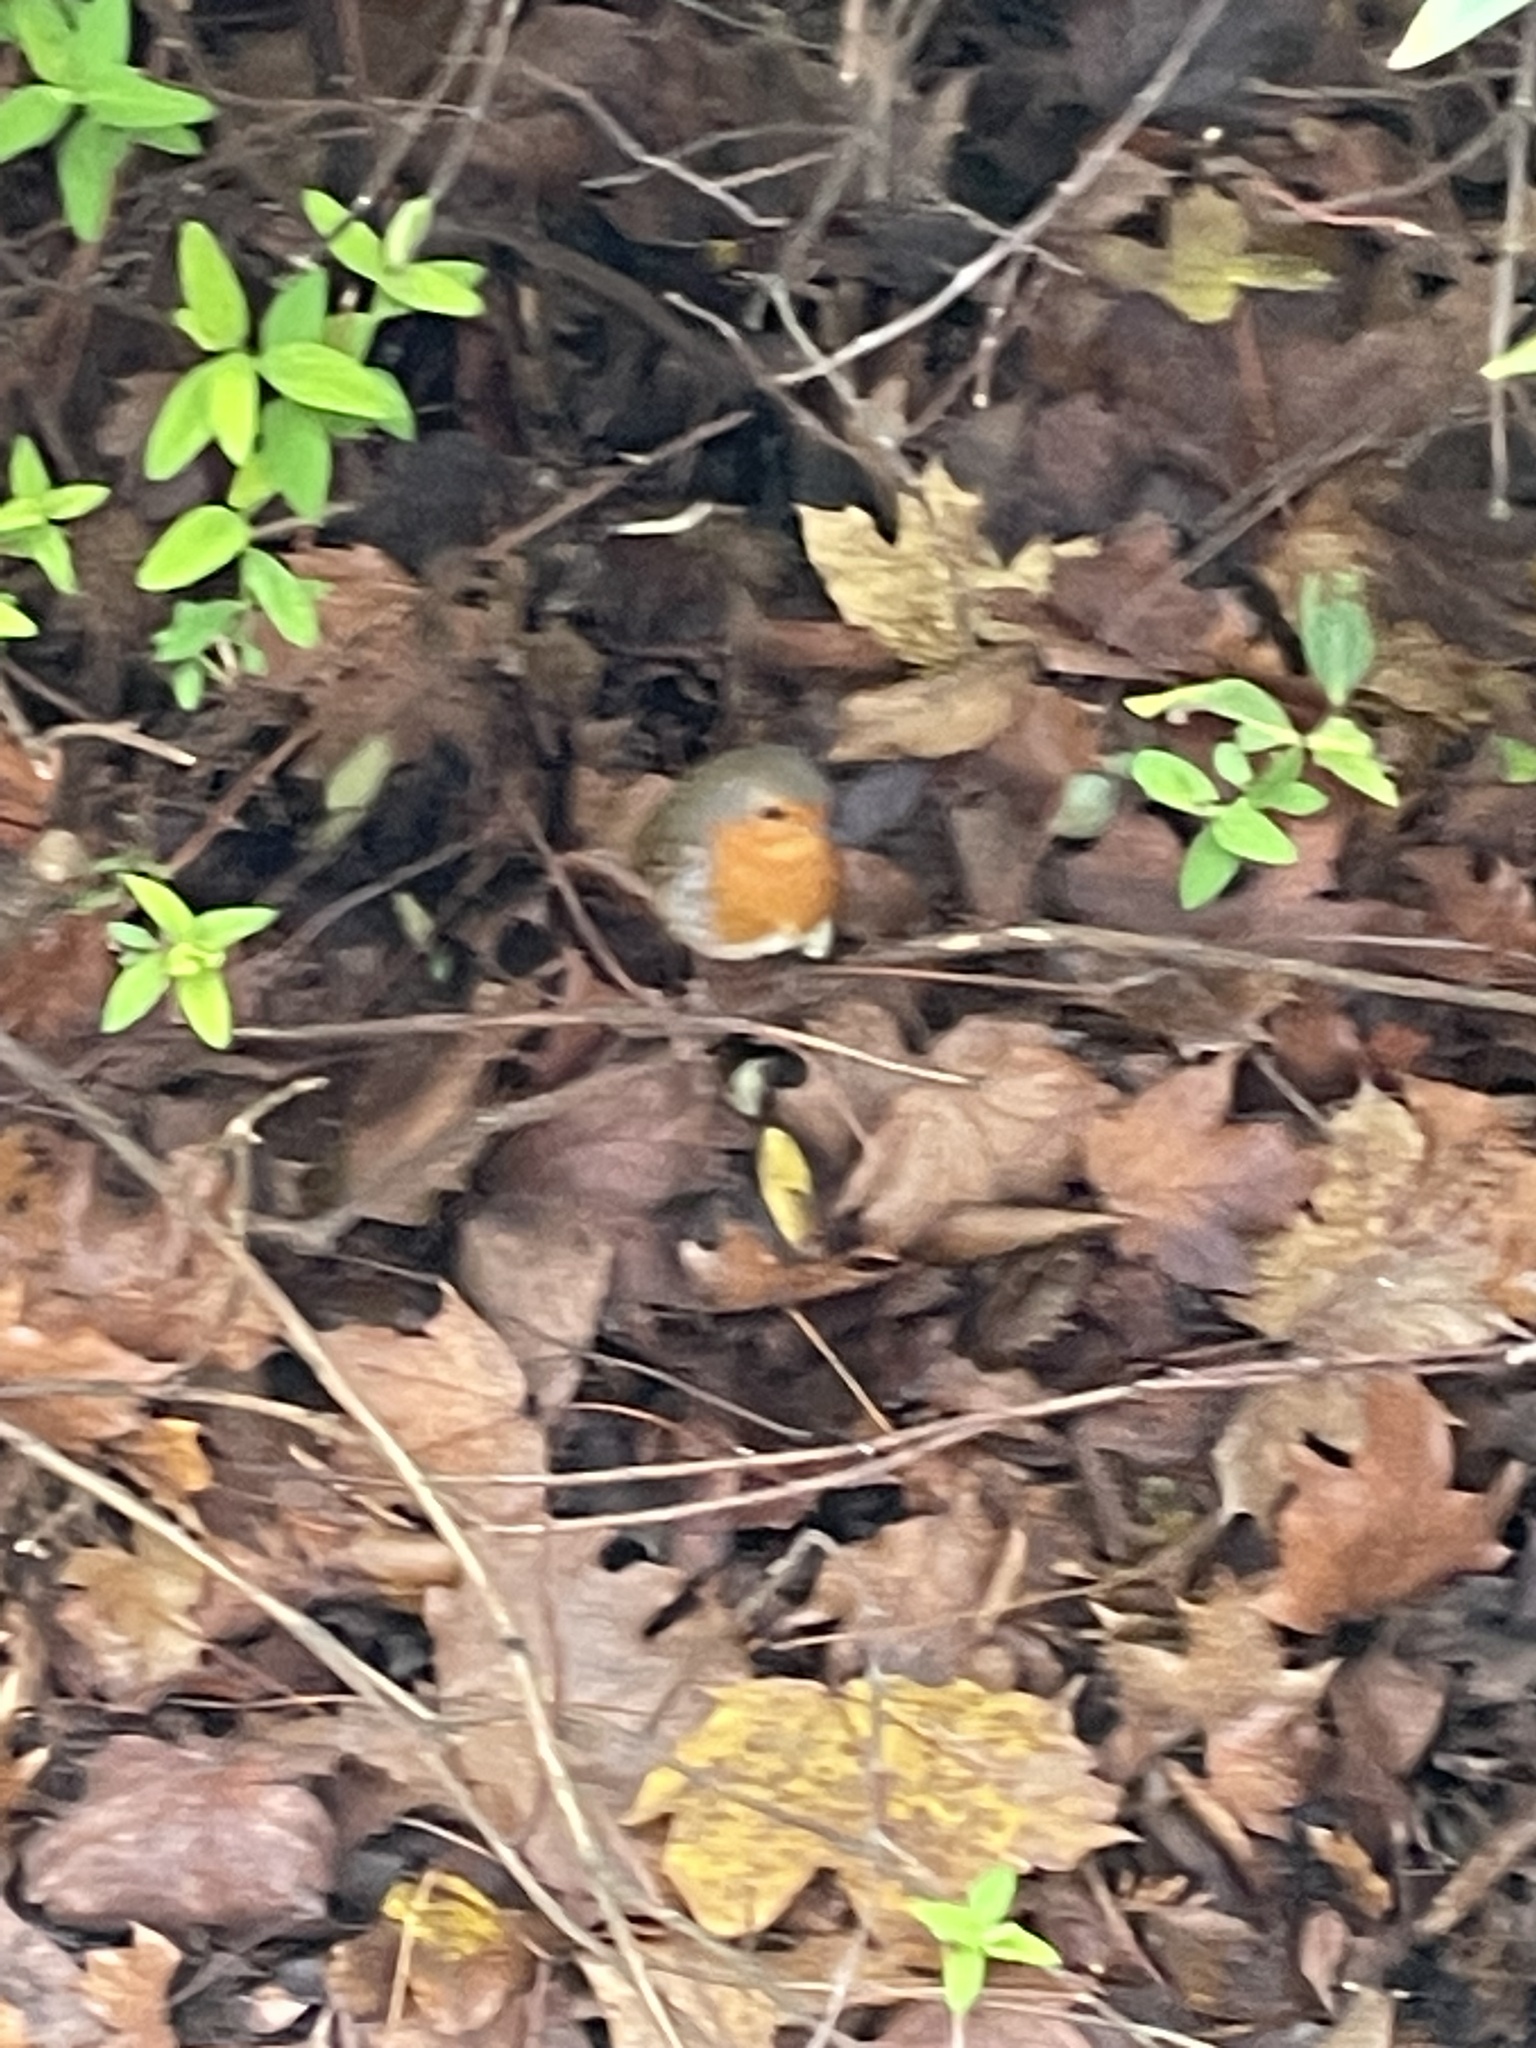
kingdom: Animalia
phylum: Chordata
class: Aves
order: Passeriformes
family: Muscicapidae
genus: Erithacus
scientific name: Erithacus rubecula
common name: European robin
